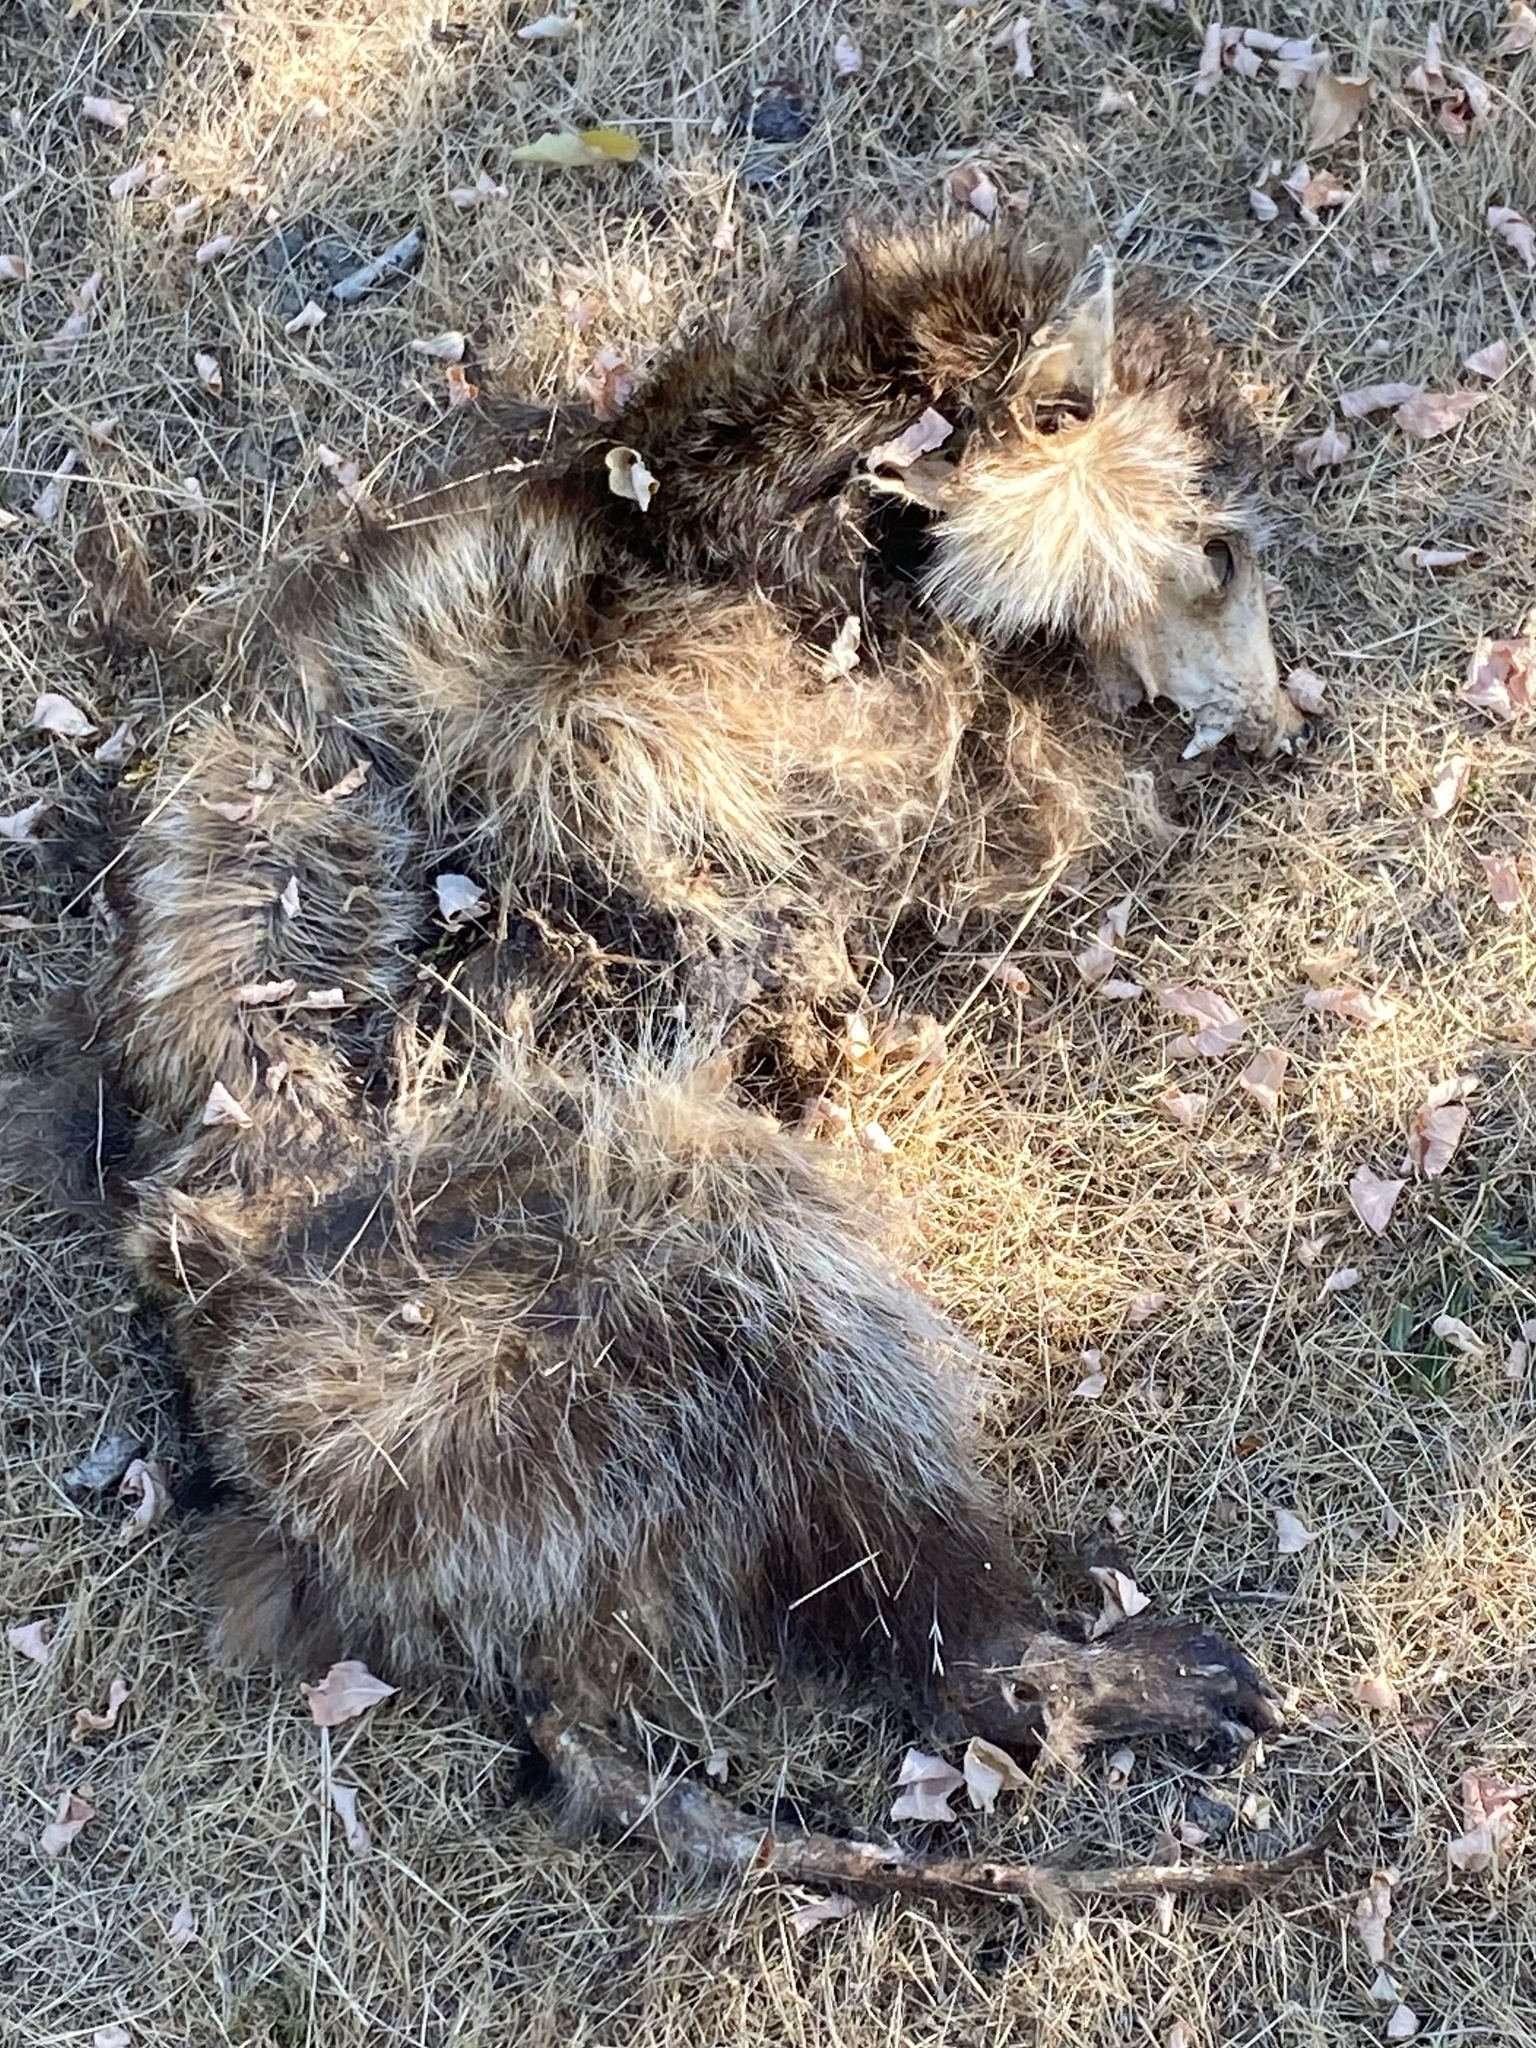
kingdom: Animalia
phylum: Chordata
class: Mammalia
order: Carnivora
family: Procyonidae
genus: Procyon
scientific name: Procyon lotor
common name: Raccoon
